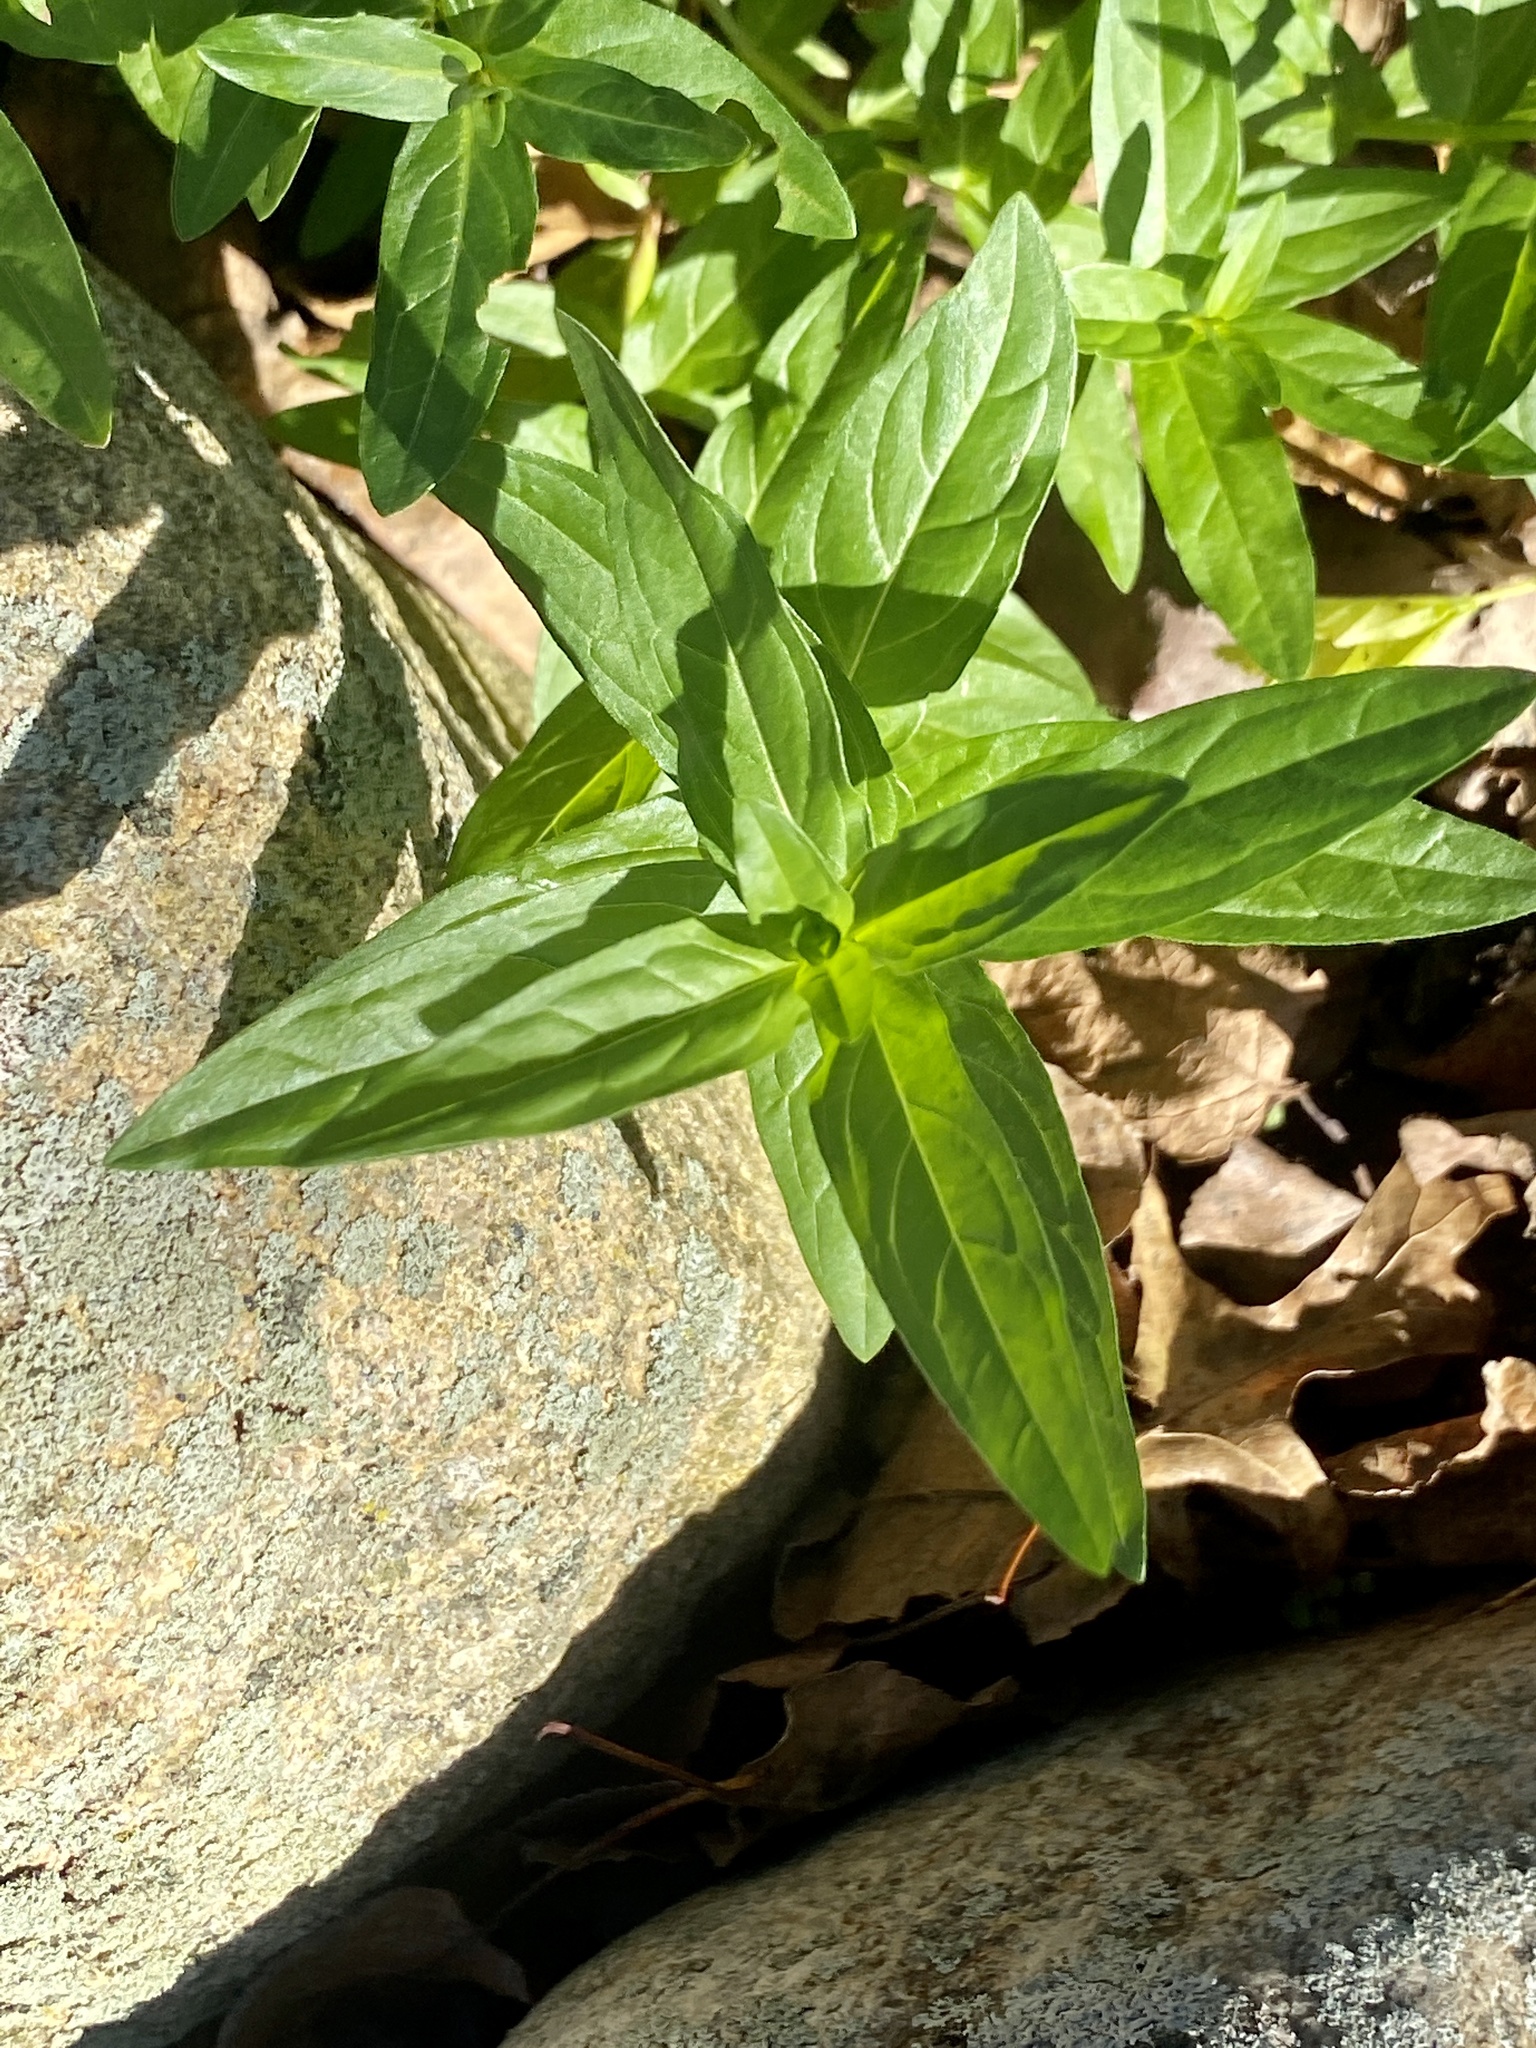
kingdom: Plantae
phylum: Tracheophyta
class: Magnoliopsida
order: Myrtales
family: Lythraceae
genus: Lythrum
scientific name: Lythrum salicaria
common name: Purple loosestrife
